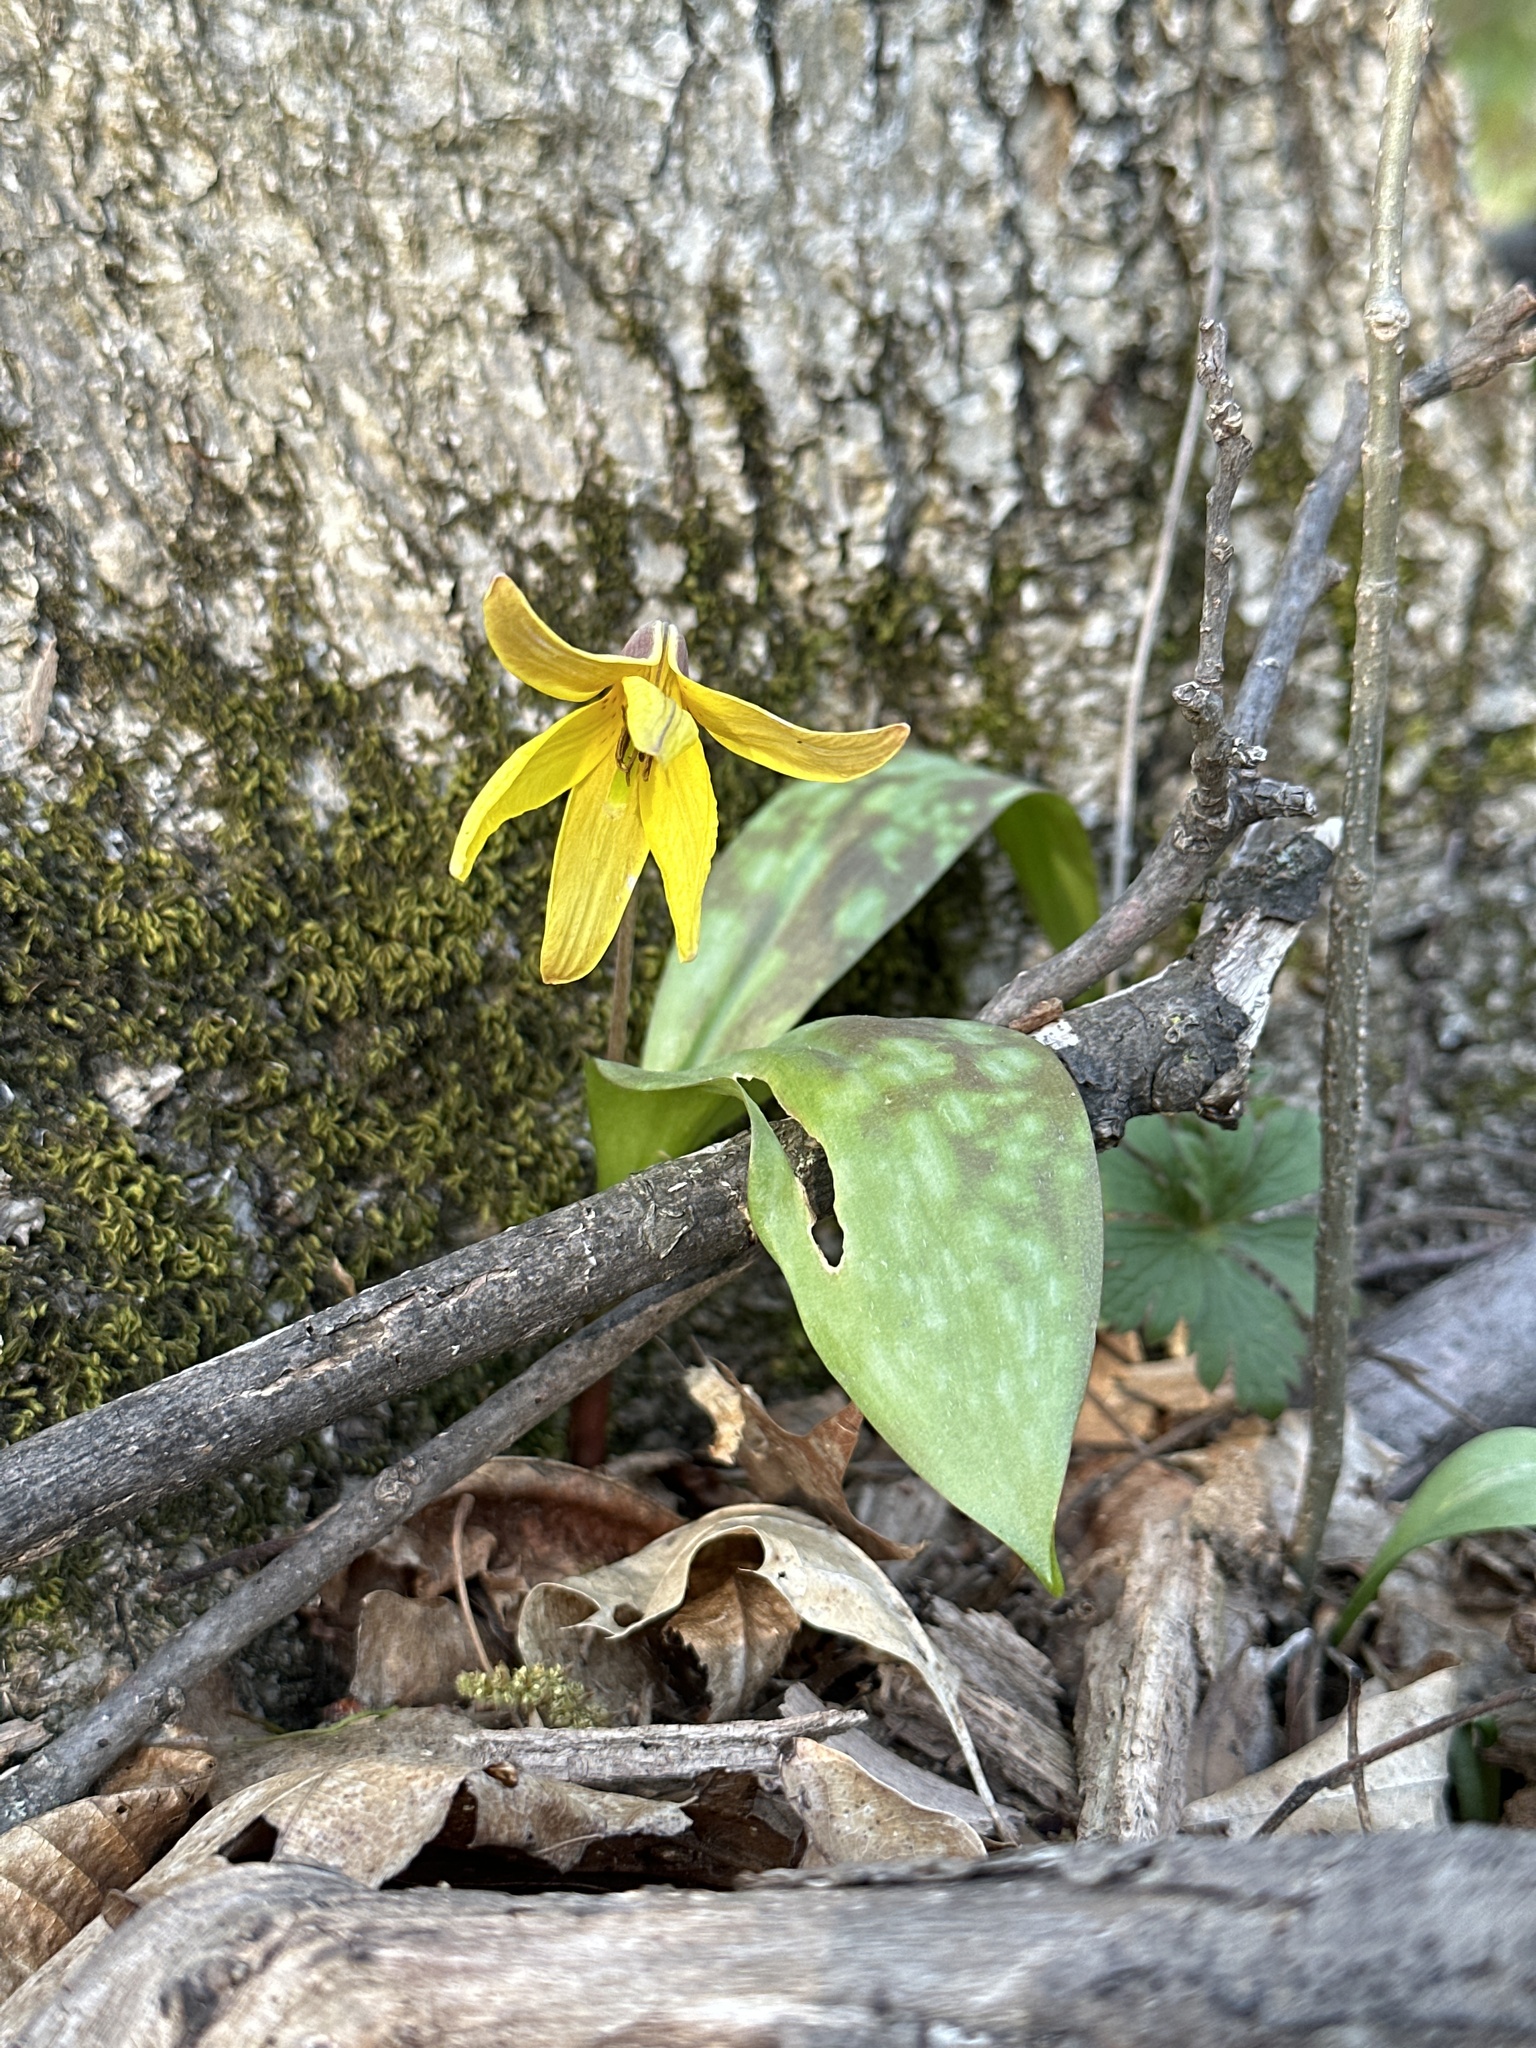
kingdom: Plantae
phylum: Tracheophyta
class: Liliopsida
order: Liliales
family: Liliaceae
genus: Erythronium
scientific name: Erythronium americanum
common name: Yellow adder's-tongue
